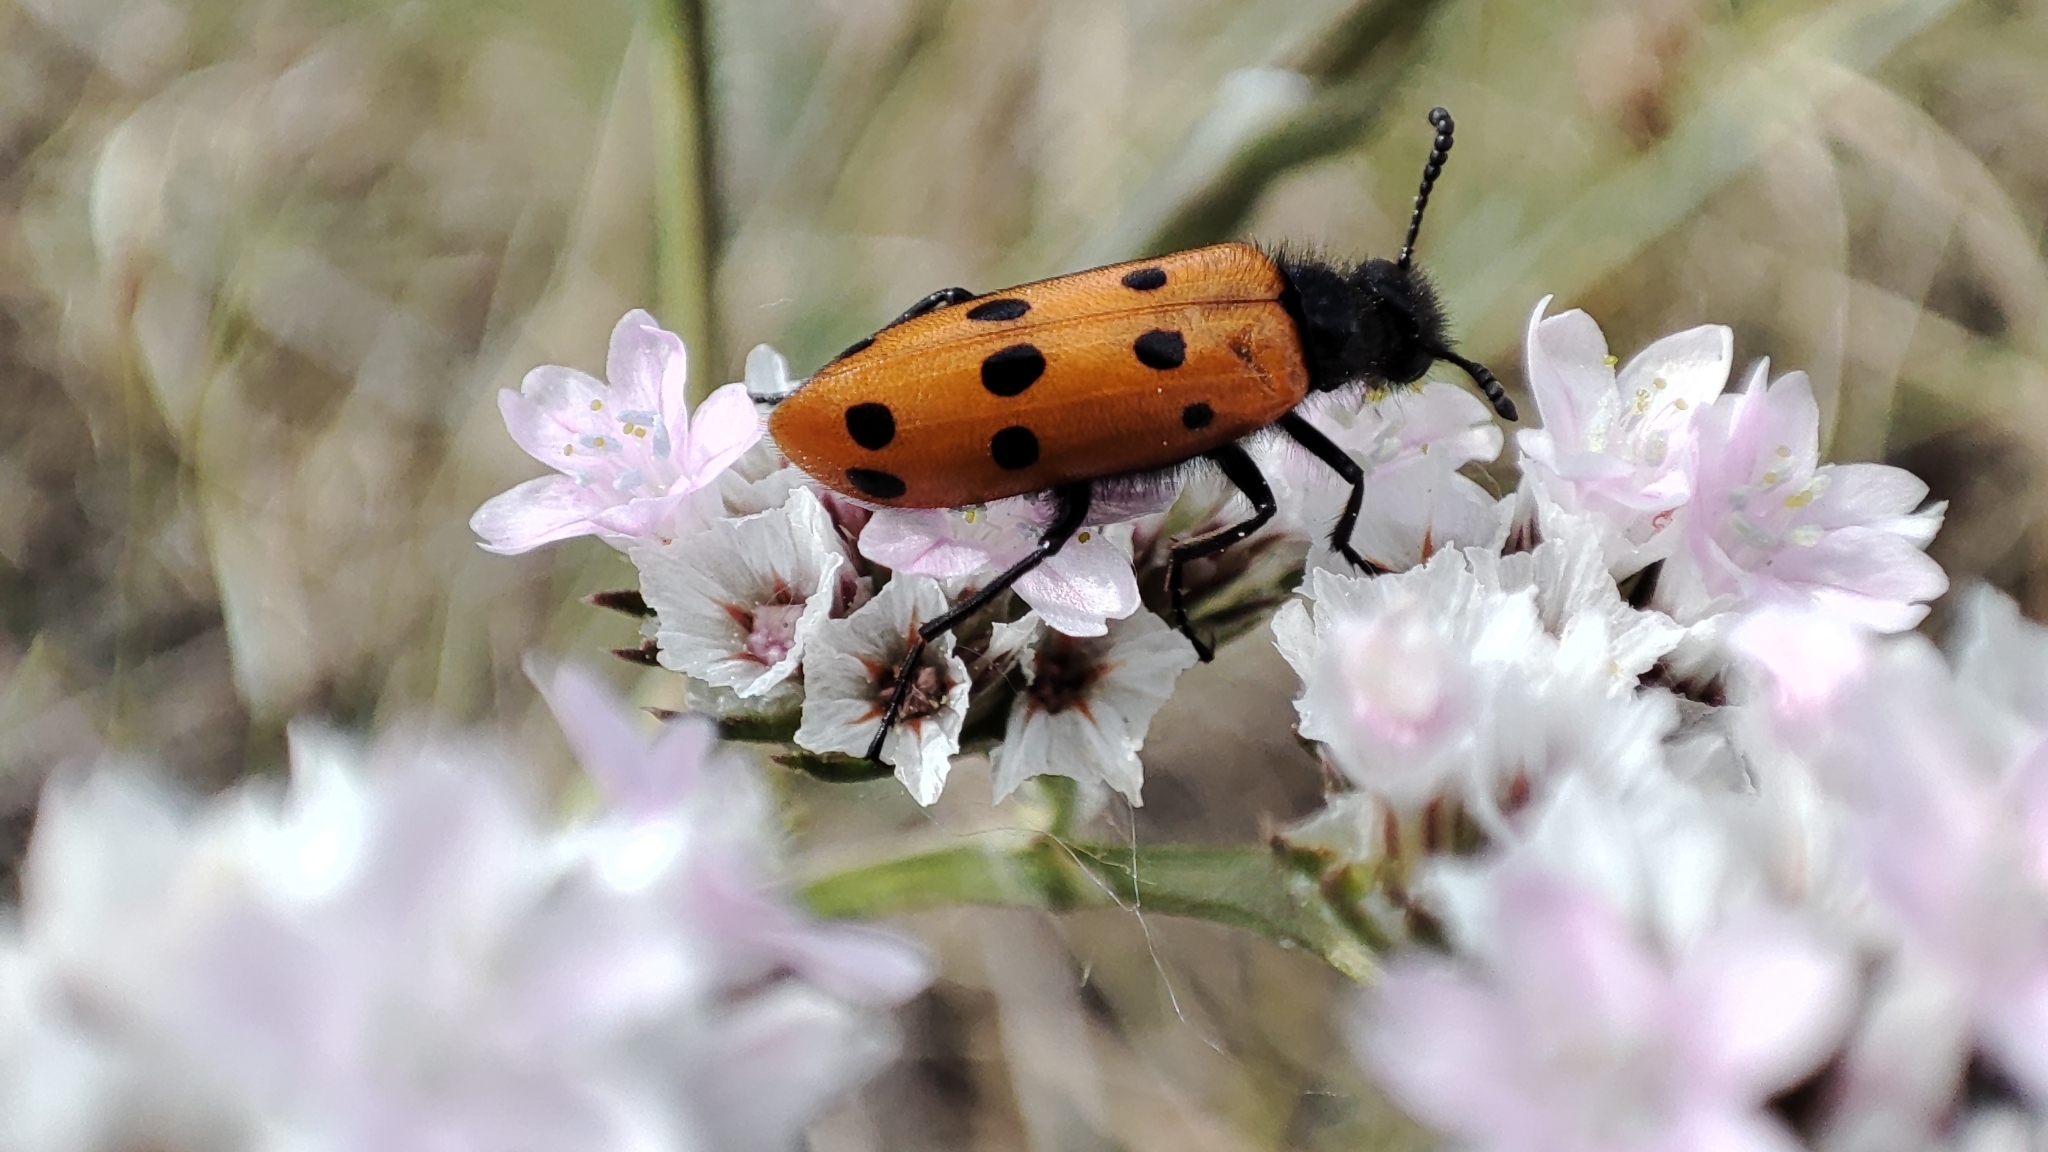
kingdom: Animalia
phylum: Arthropoda
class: Insecta
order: Coleoptera
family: Meloidae
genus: Mylabris
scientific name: Mylabris crocata
